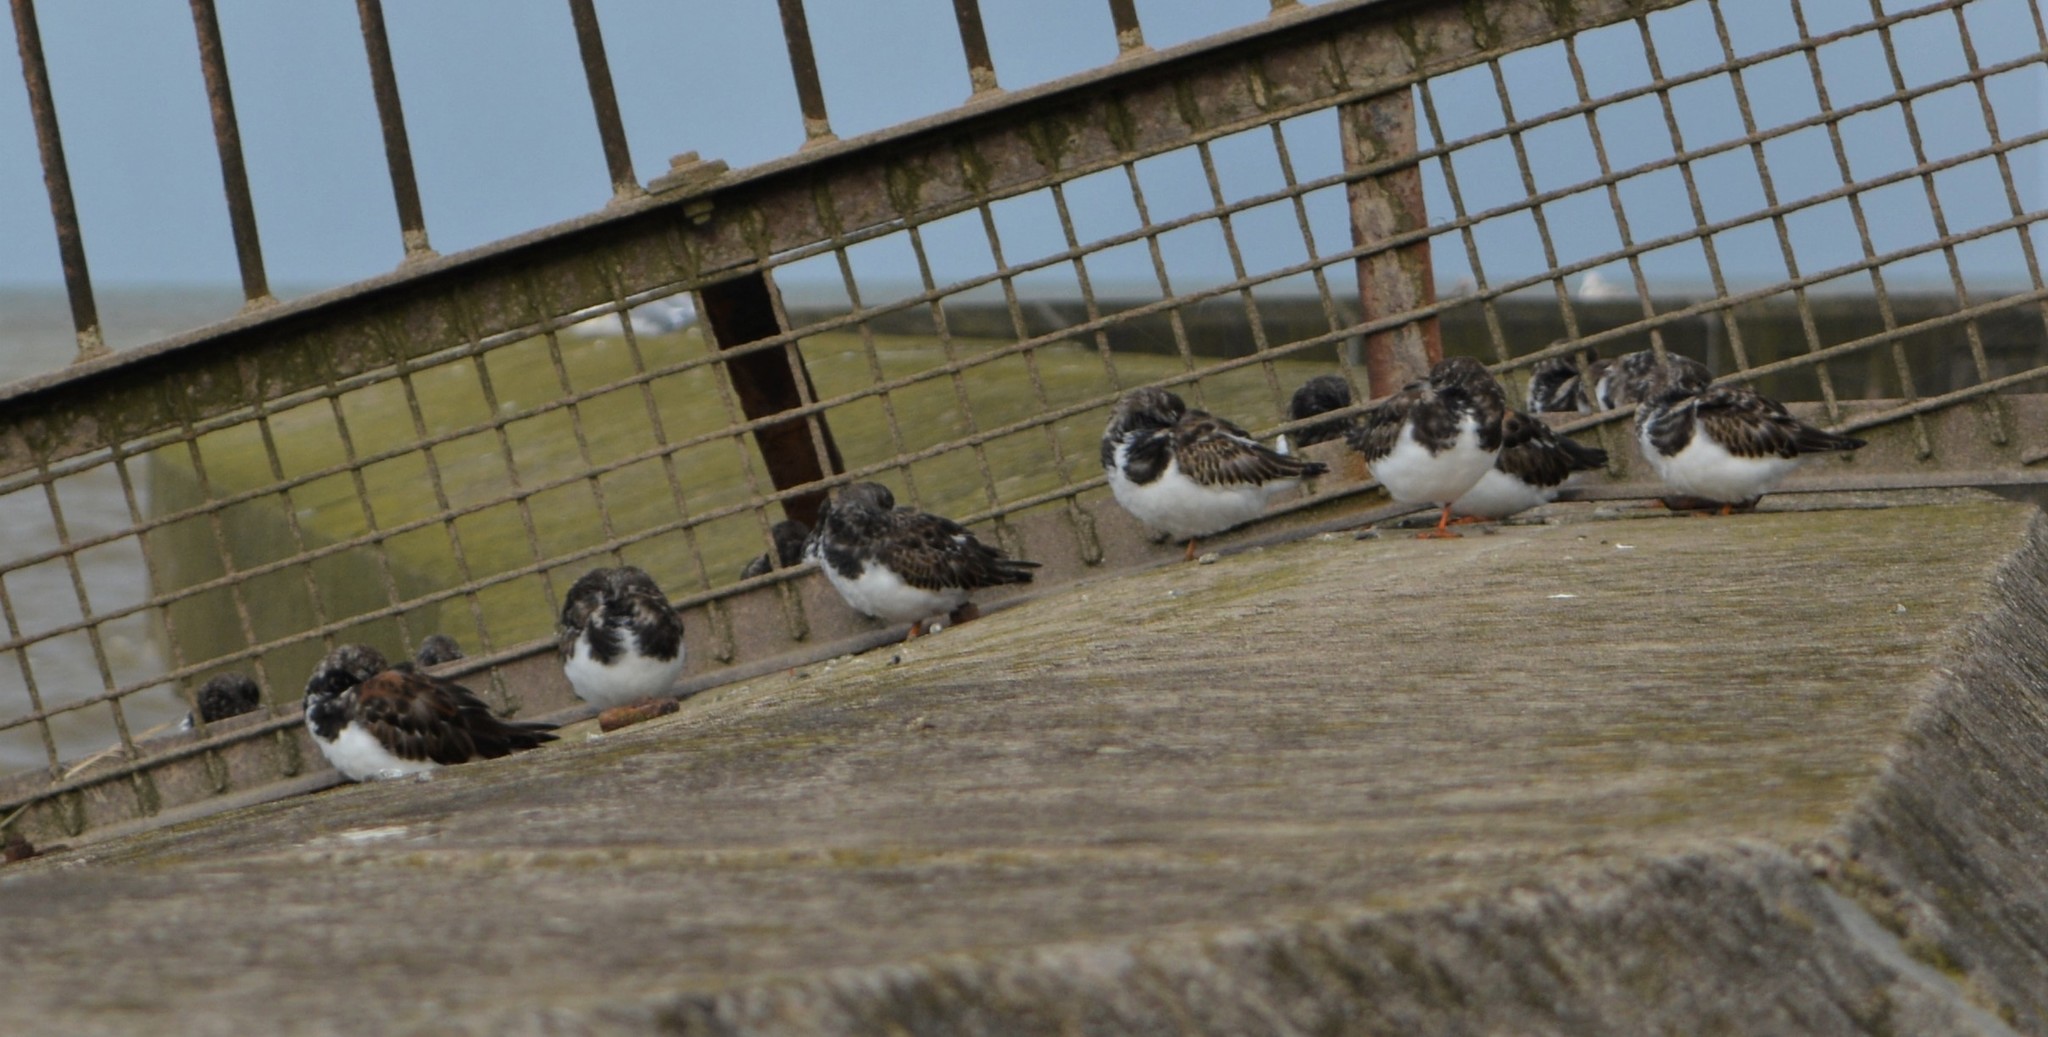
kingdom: Animalia
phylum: Chordata
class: Aves
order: Charadriiformes
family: Scolopacidae
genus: Arenaria
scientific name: Arenaria interpres
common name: Ruddy turnstone
